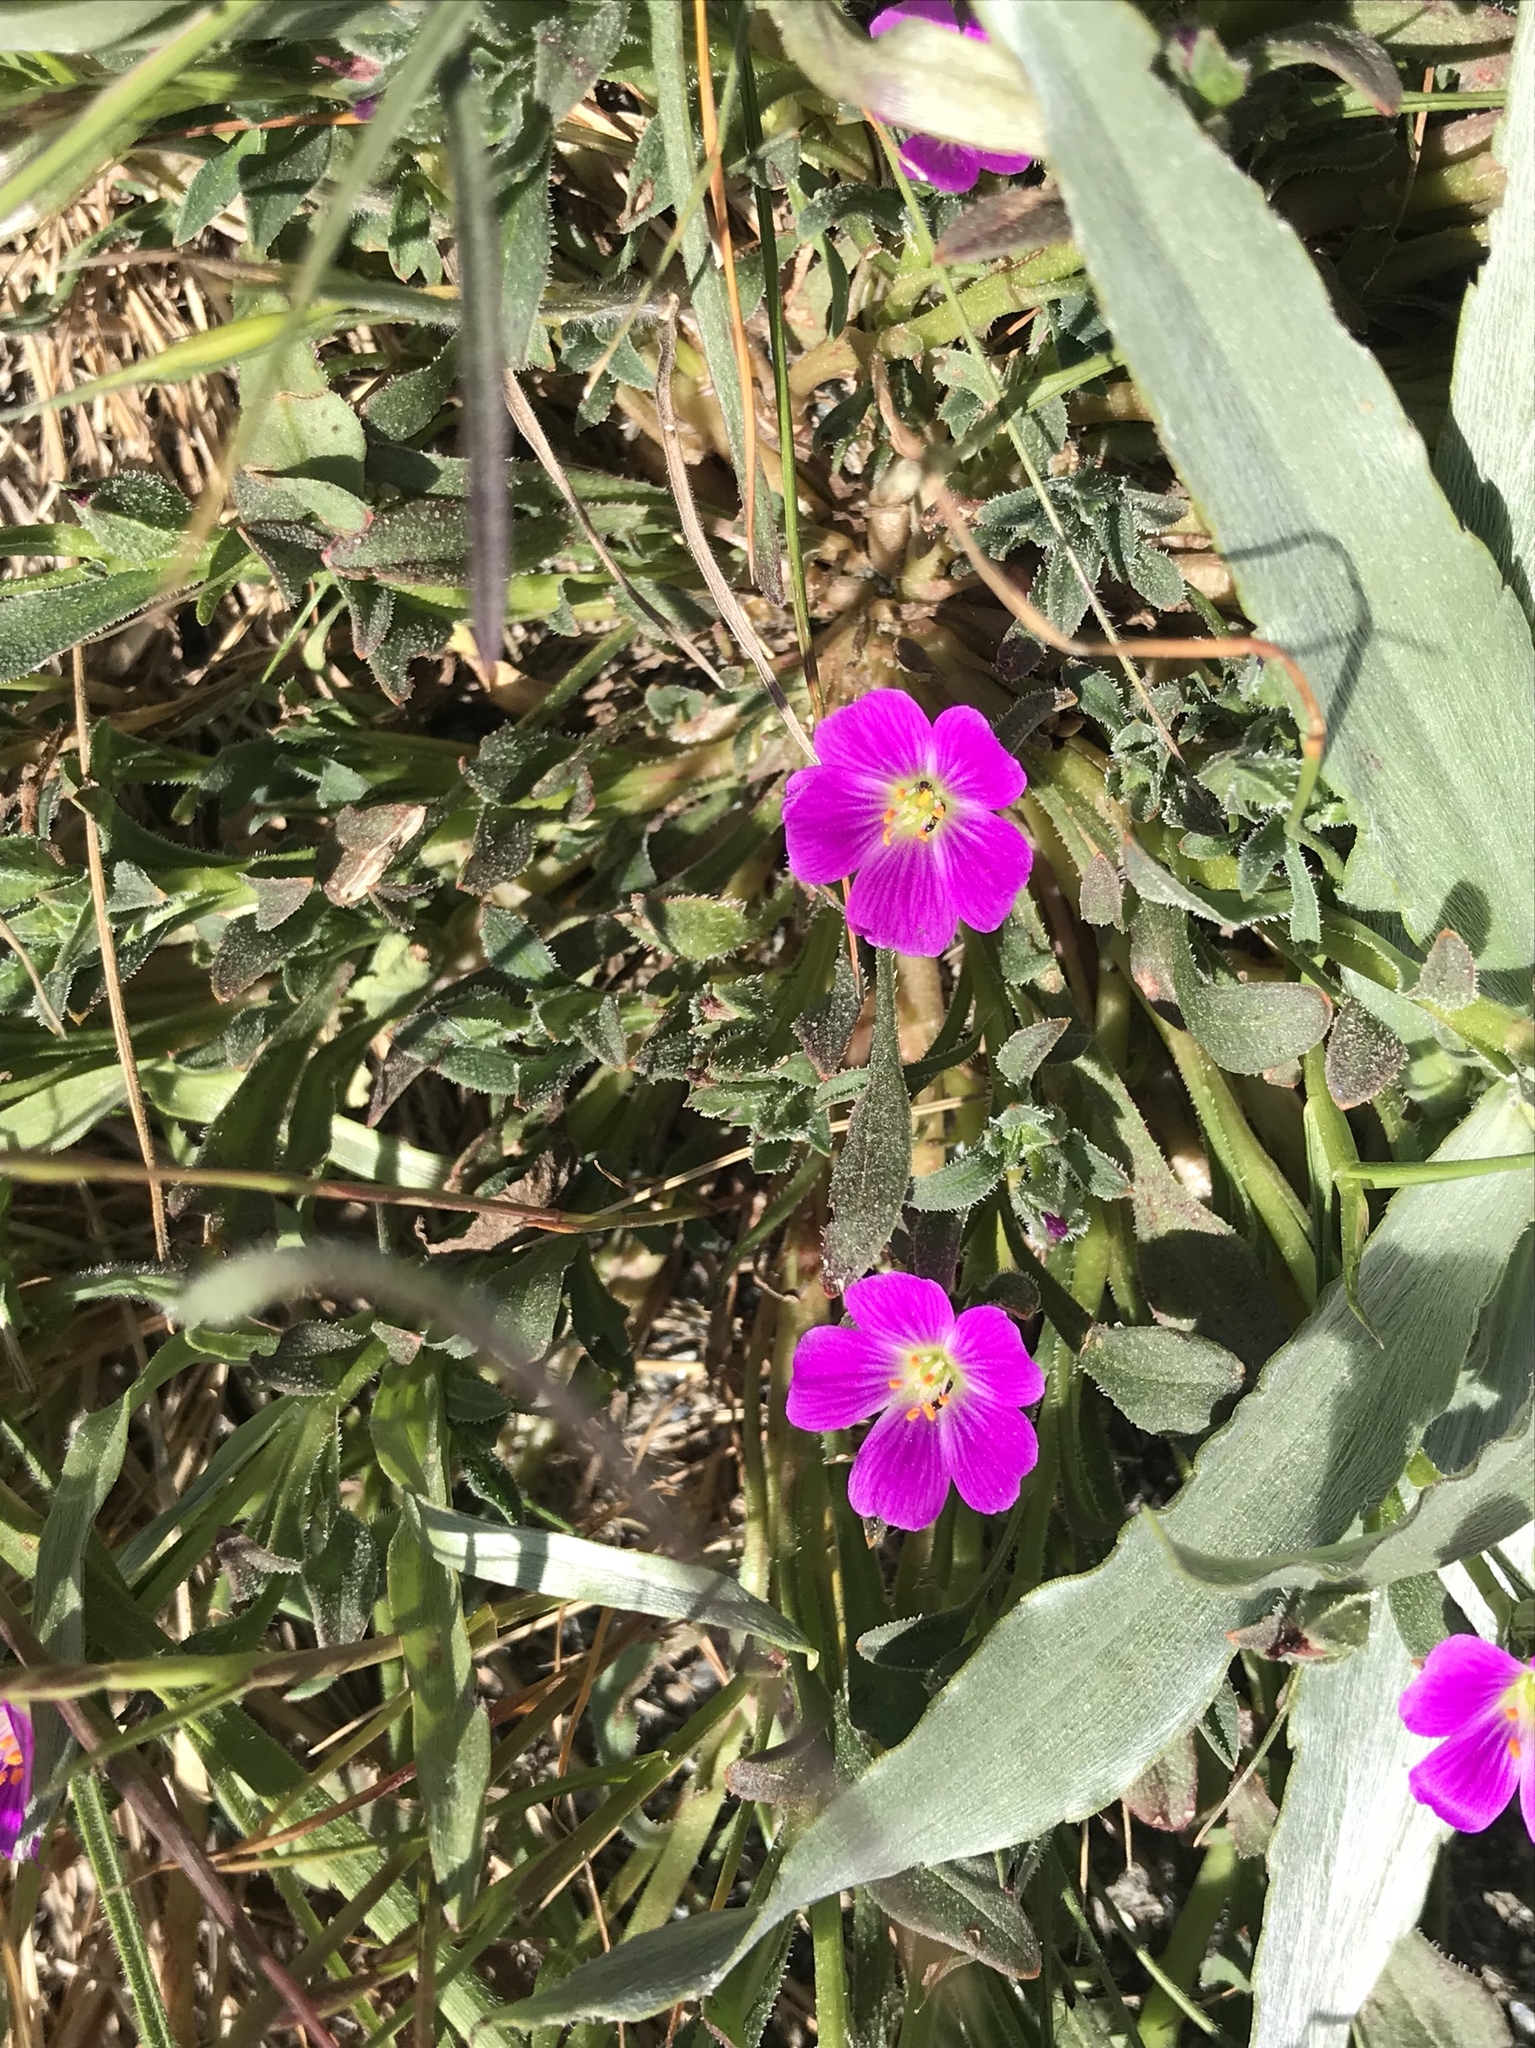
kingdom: Plantae
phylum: Tracheophyta
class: Magnoliopsida
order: Caryophyllales
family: Montiaceae
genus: Calandrinia
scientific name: Calandrinia menziesii
